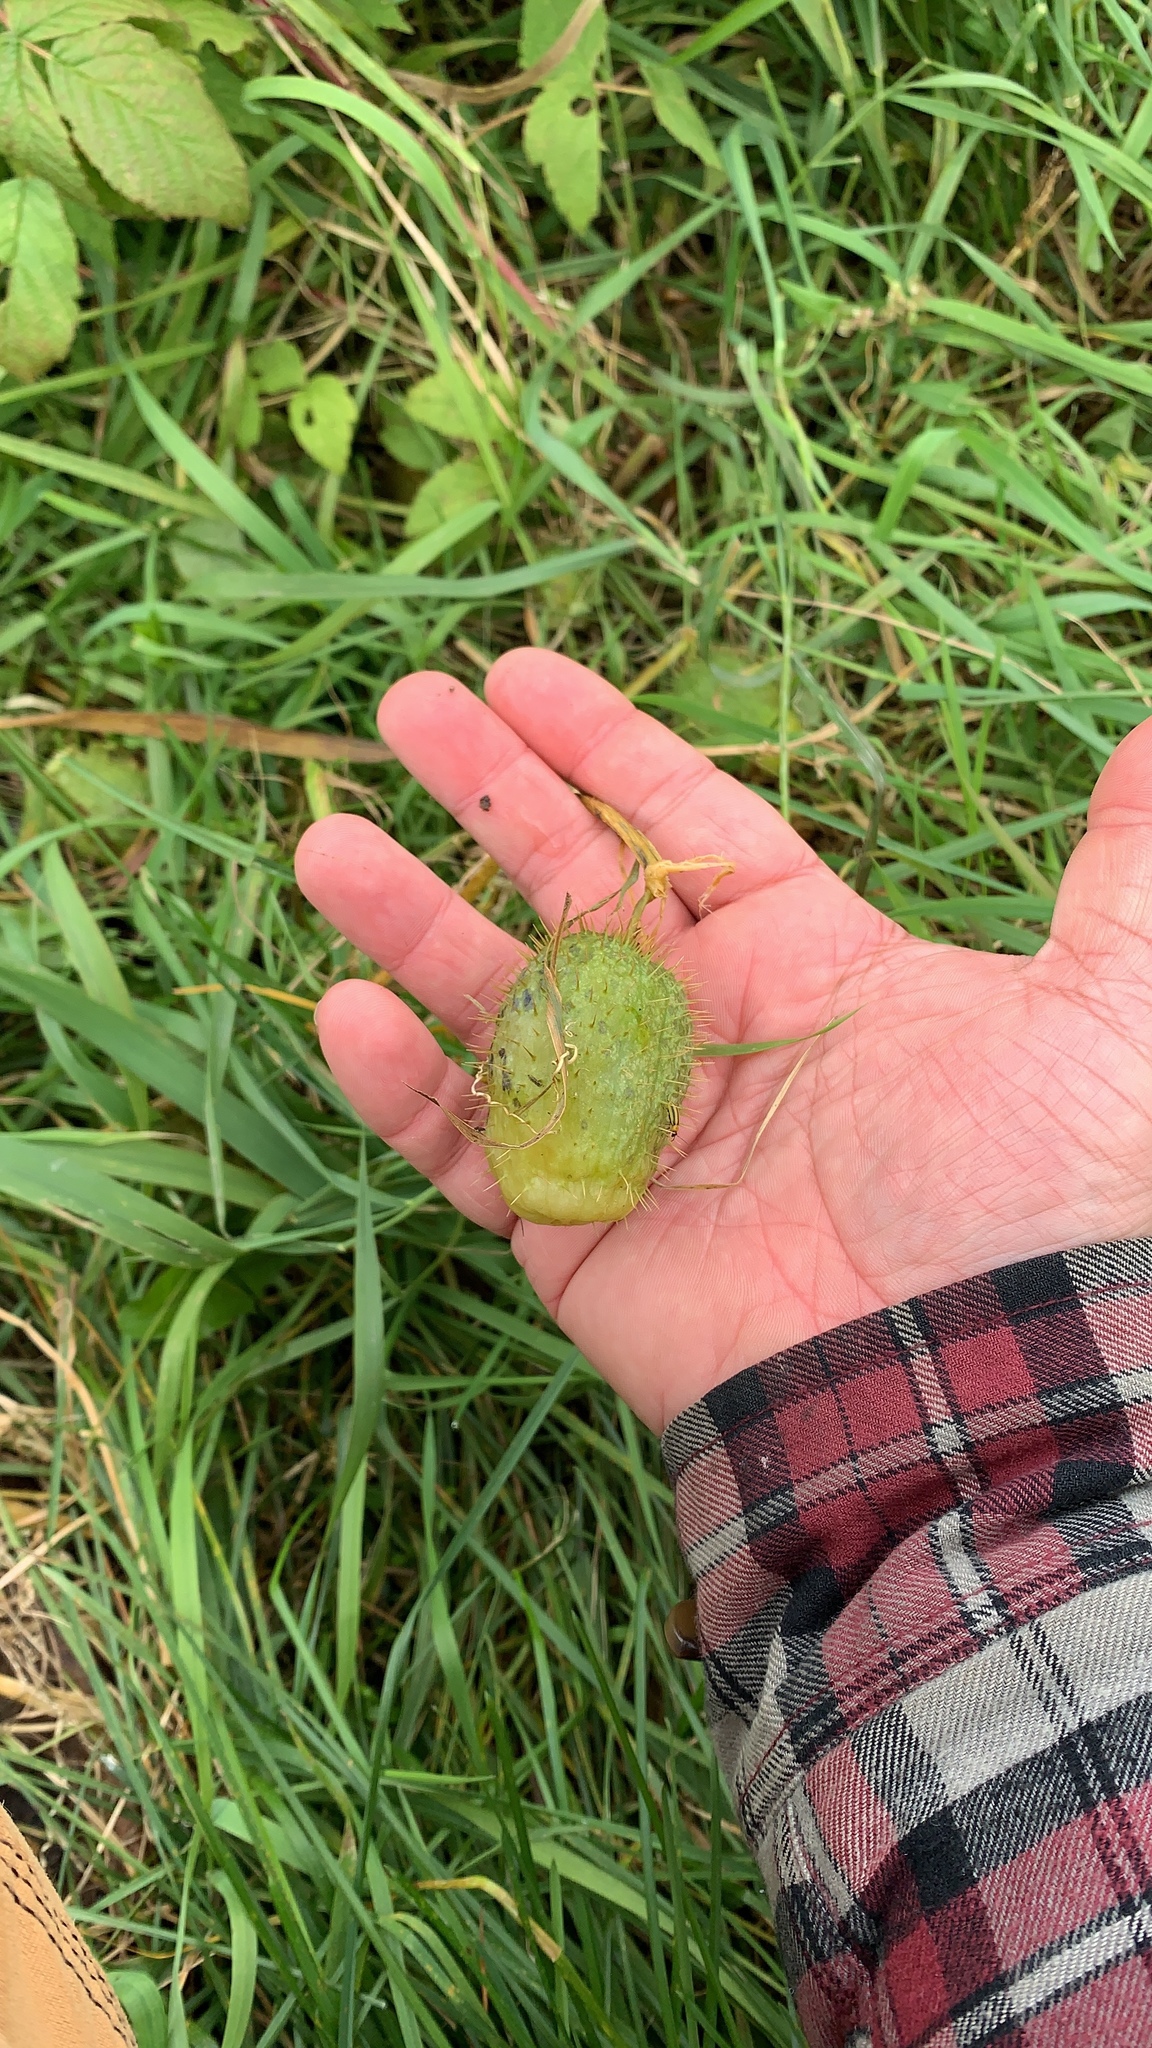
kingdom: Plantae
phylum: Tracheophyta
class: Magnoliopsida
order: Cucurbitales
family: Cucurbitaceae
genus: Echinocystis
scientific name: Echinocystis lobata
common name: Wild cucumber
